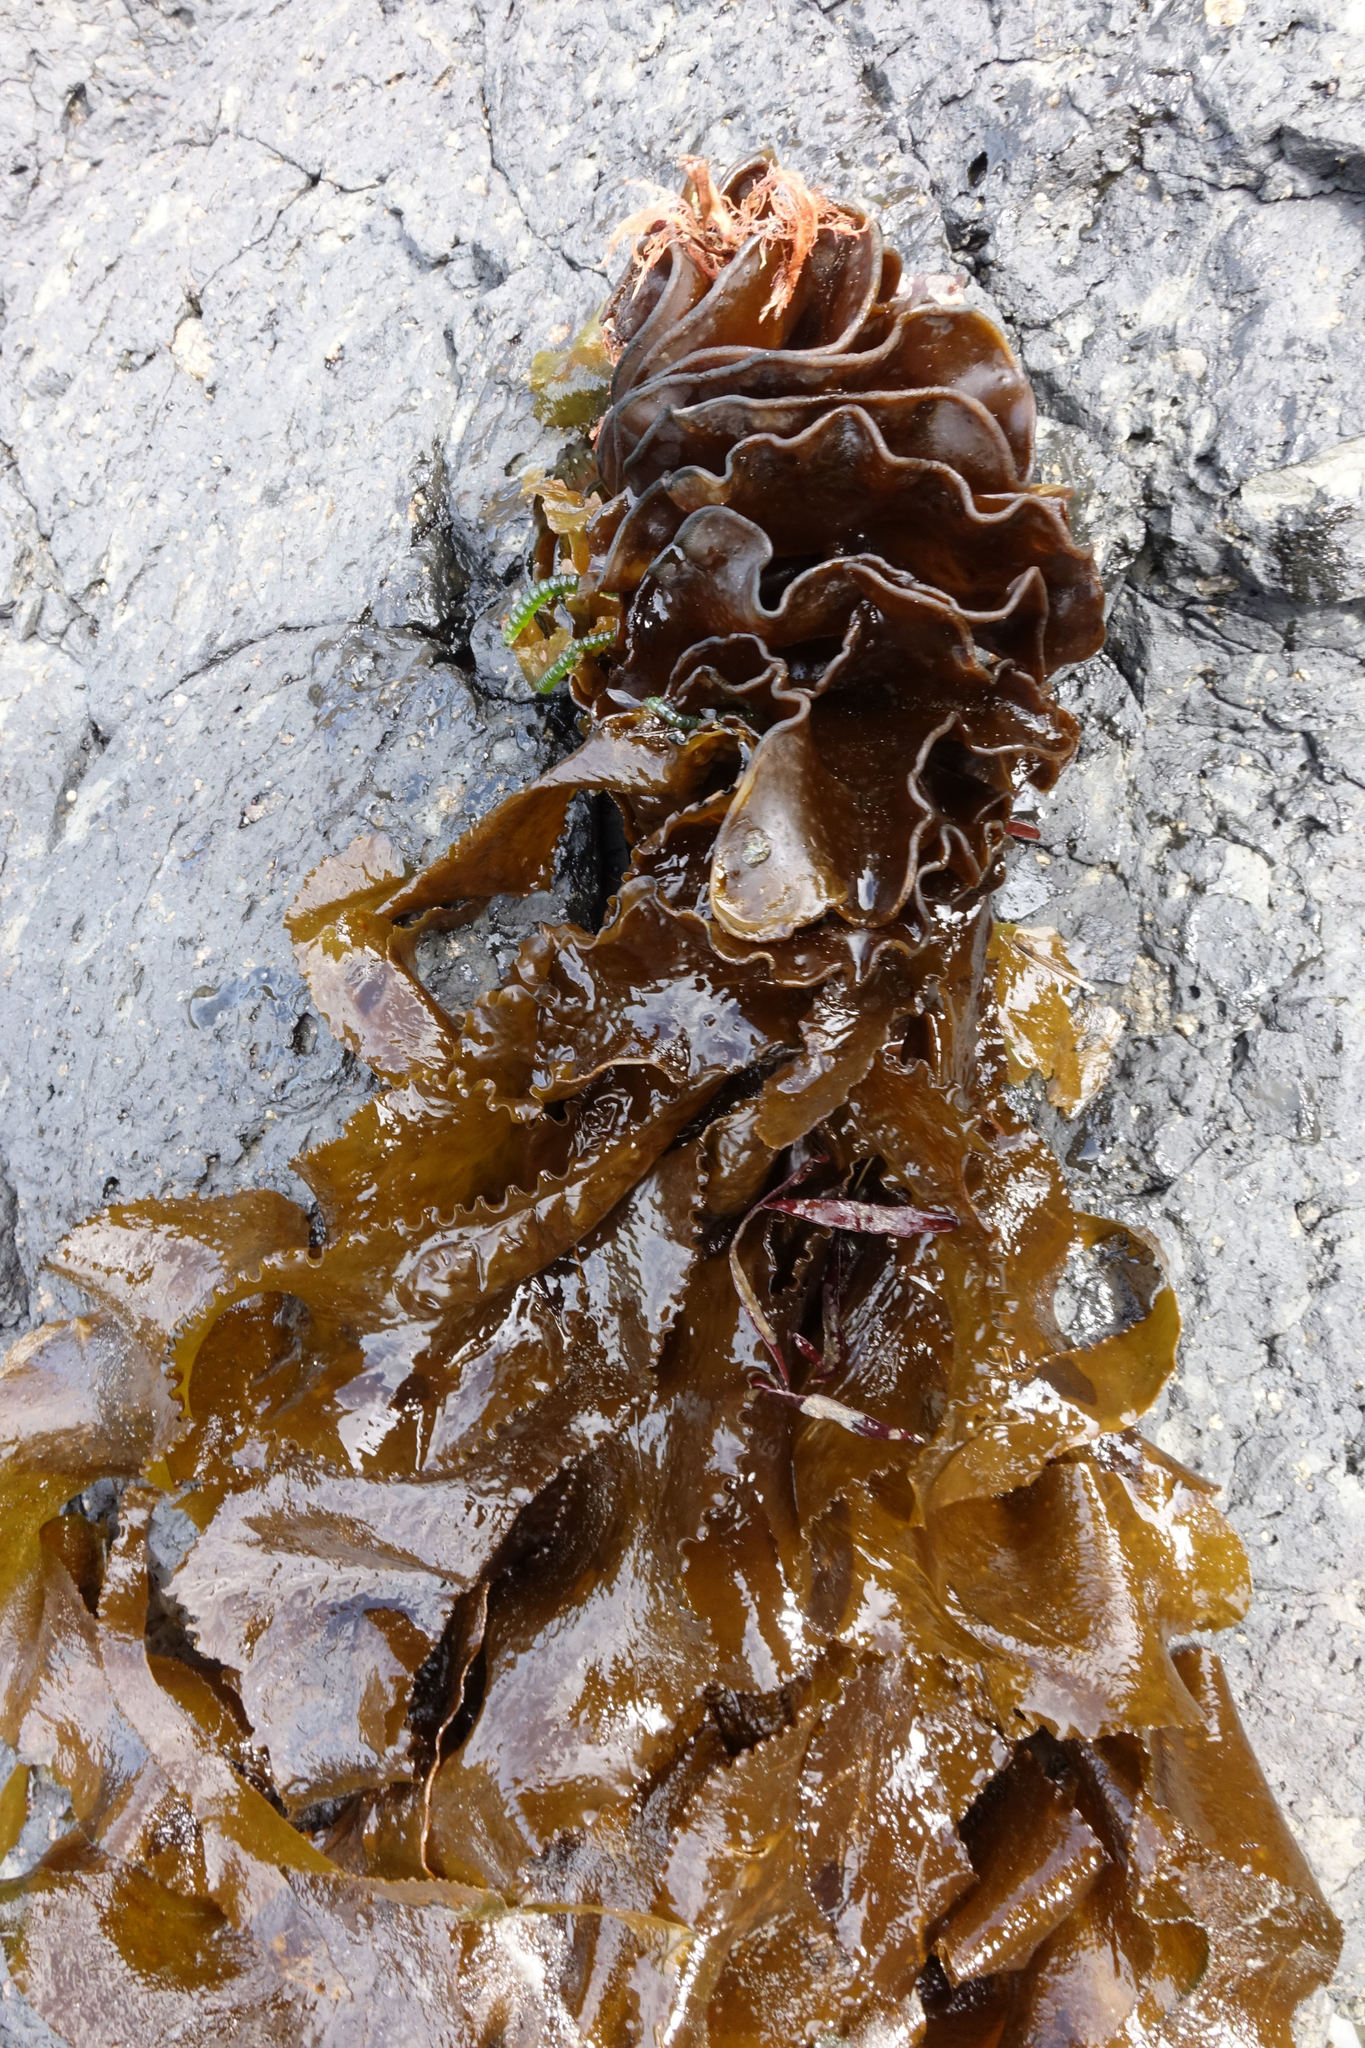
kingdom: Chromista
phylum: Ochrophyta
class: Phaeophyceae
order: Laminariales
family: Alariaceae
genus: Undaria
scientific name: Undaria pinnatifida
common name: Asian kelp
